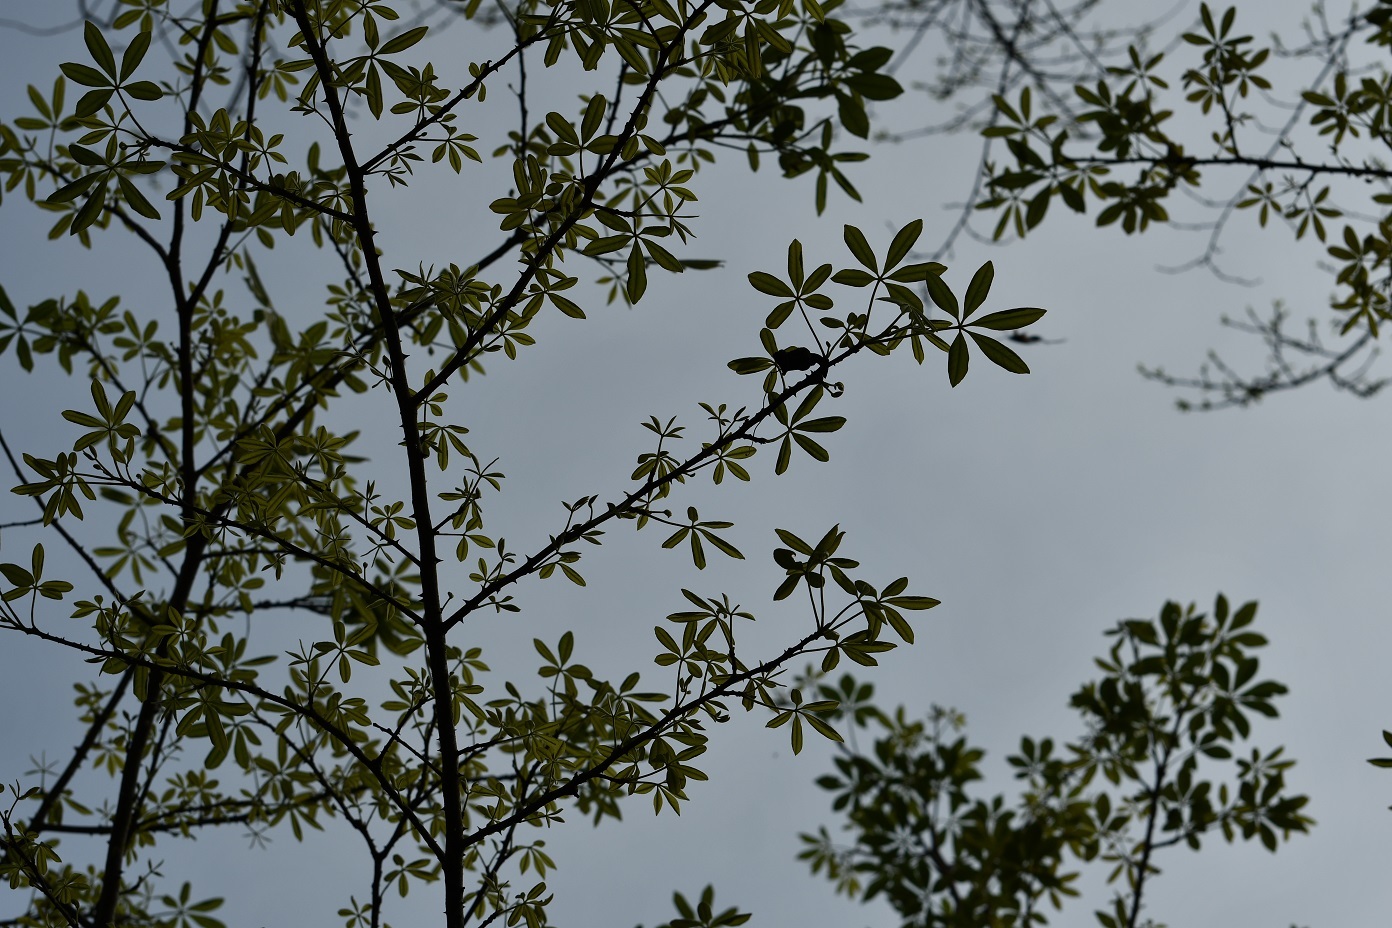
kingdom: Plantae
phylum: Tracheophyta
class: Magnoliopsida
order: Malvales
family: Malvaceae
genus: Ceiba
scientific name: Ceiba aesculifolia
